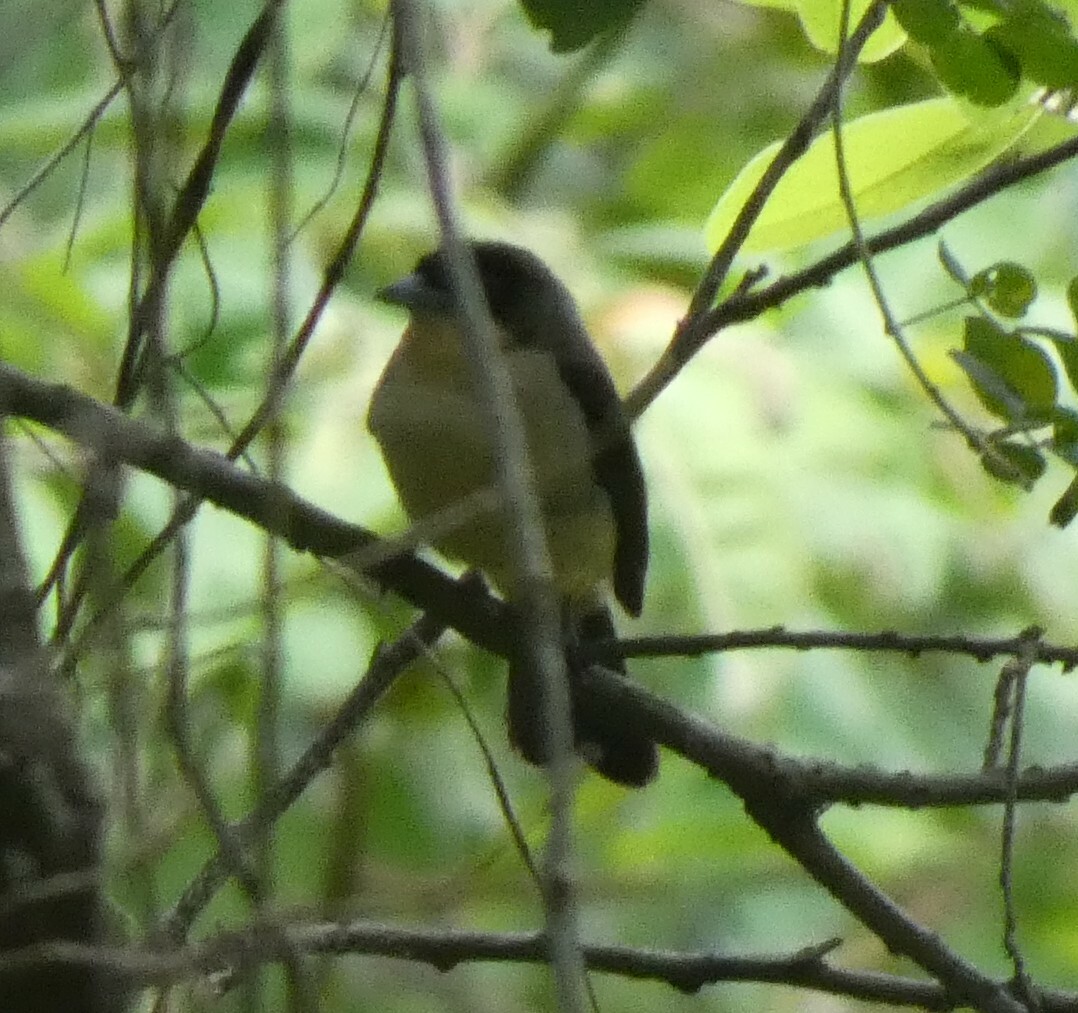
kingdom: Animalia
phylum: Chordata
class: Aves
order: Passeriformes
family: Thraupidae
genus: Trichothraupis
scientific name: Trichothraupis melanops
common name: Black-goggled tanager
